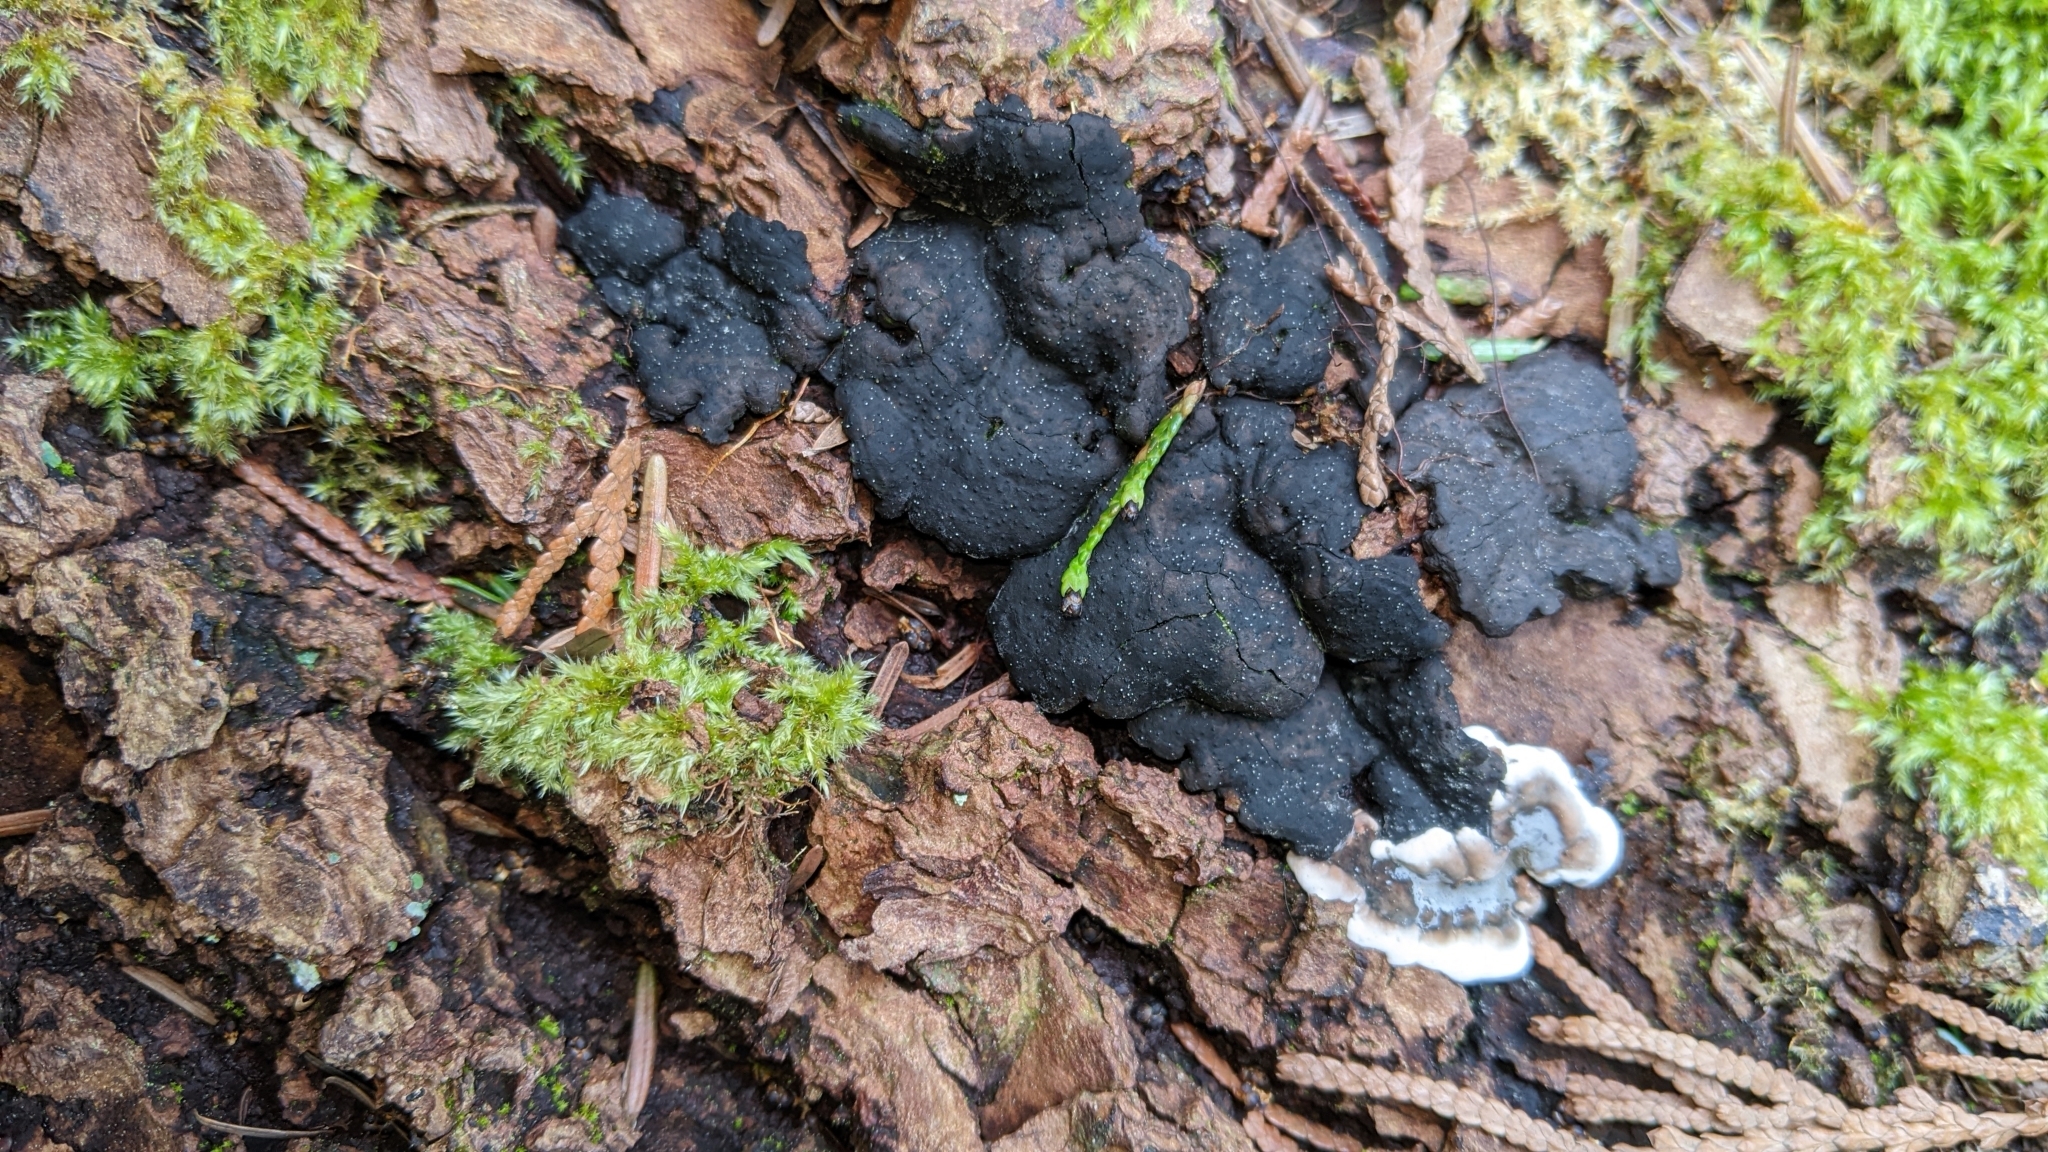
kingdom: Fungi
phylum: Ascomycota
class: Sordariomycetes
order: Xylariales
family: Xylariaceae
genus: Kretzschmaria
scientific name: Kretzschmaria deusta
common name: Brittle cinder
